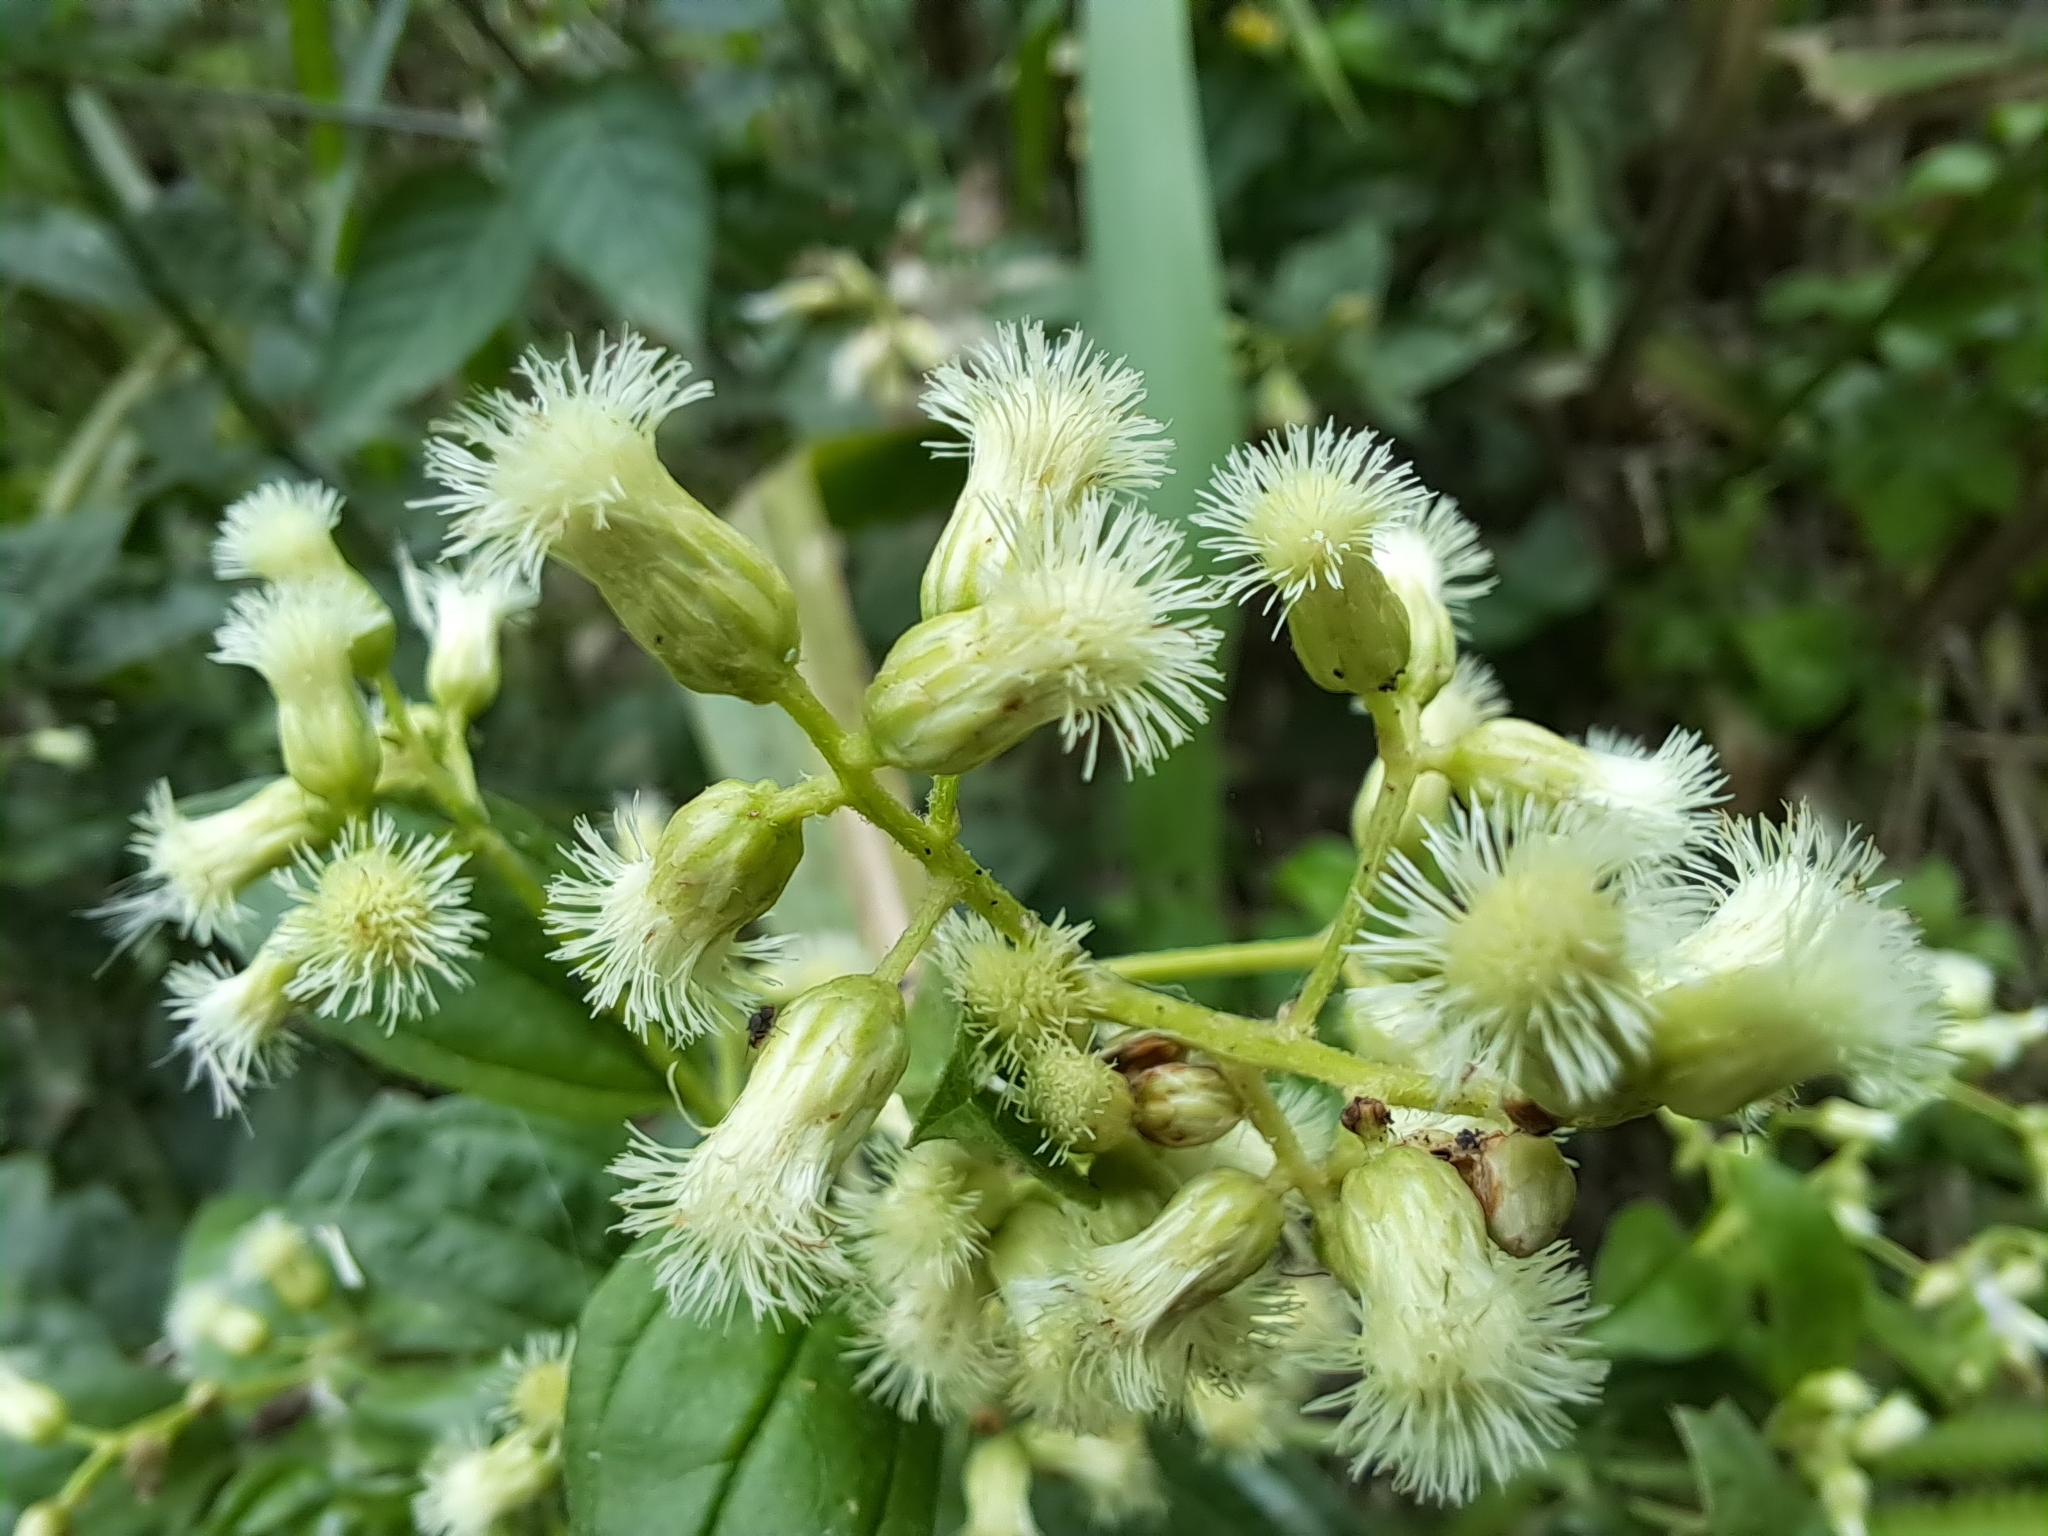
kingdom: Plantae
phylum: Tracheophyta
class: Magnoliopsida
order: Asterales
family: Asteraceae
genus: Baccharis
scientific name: Baccharis trinervis
